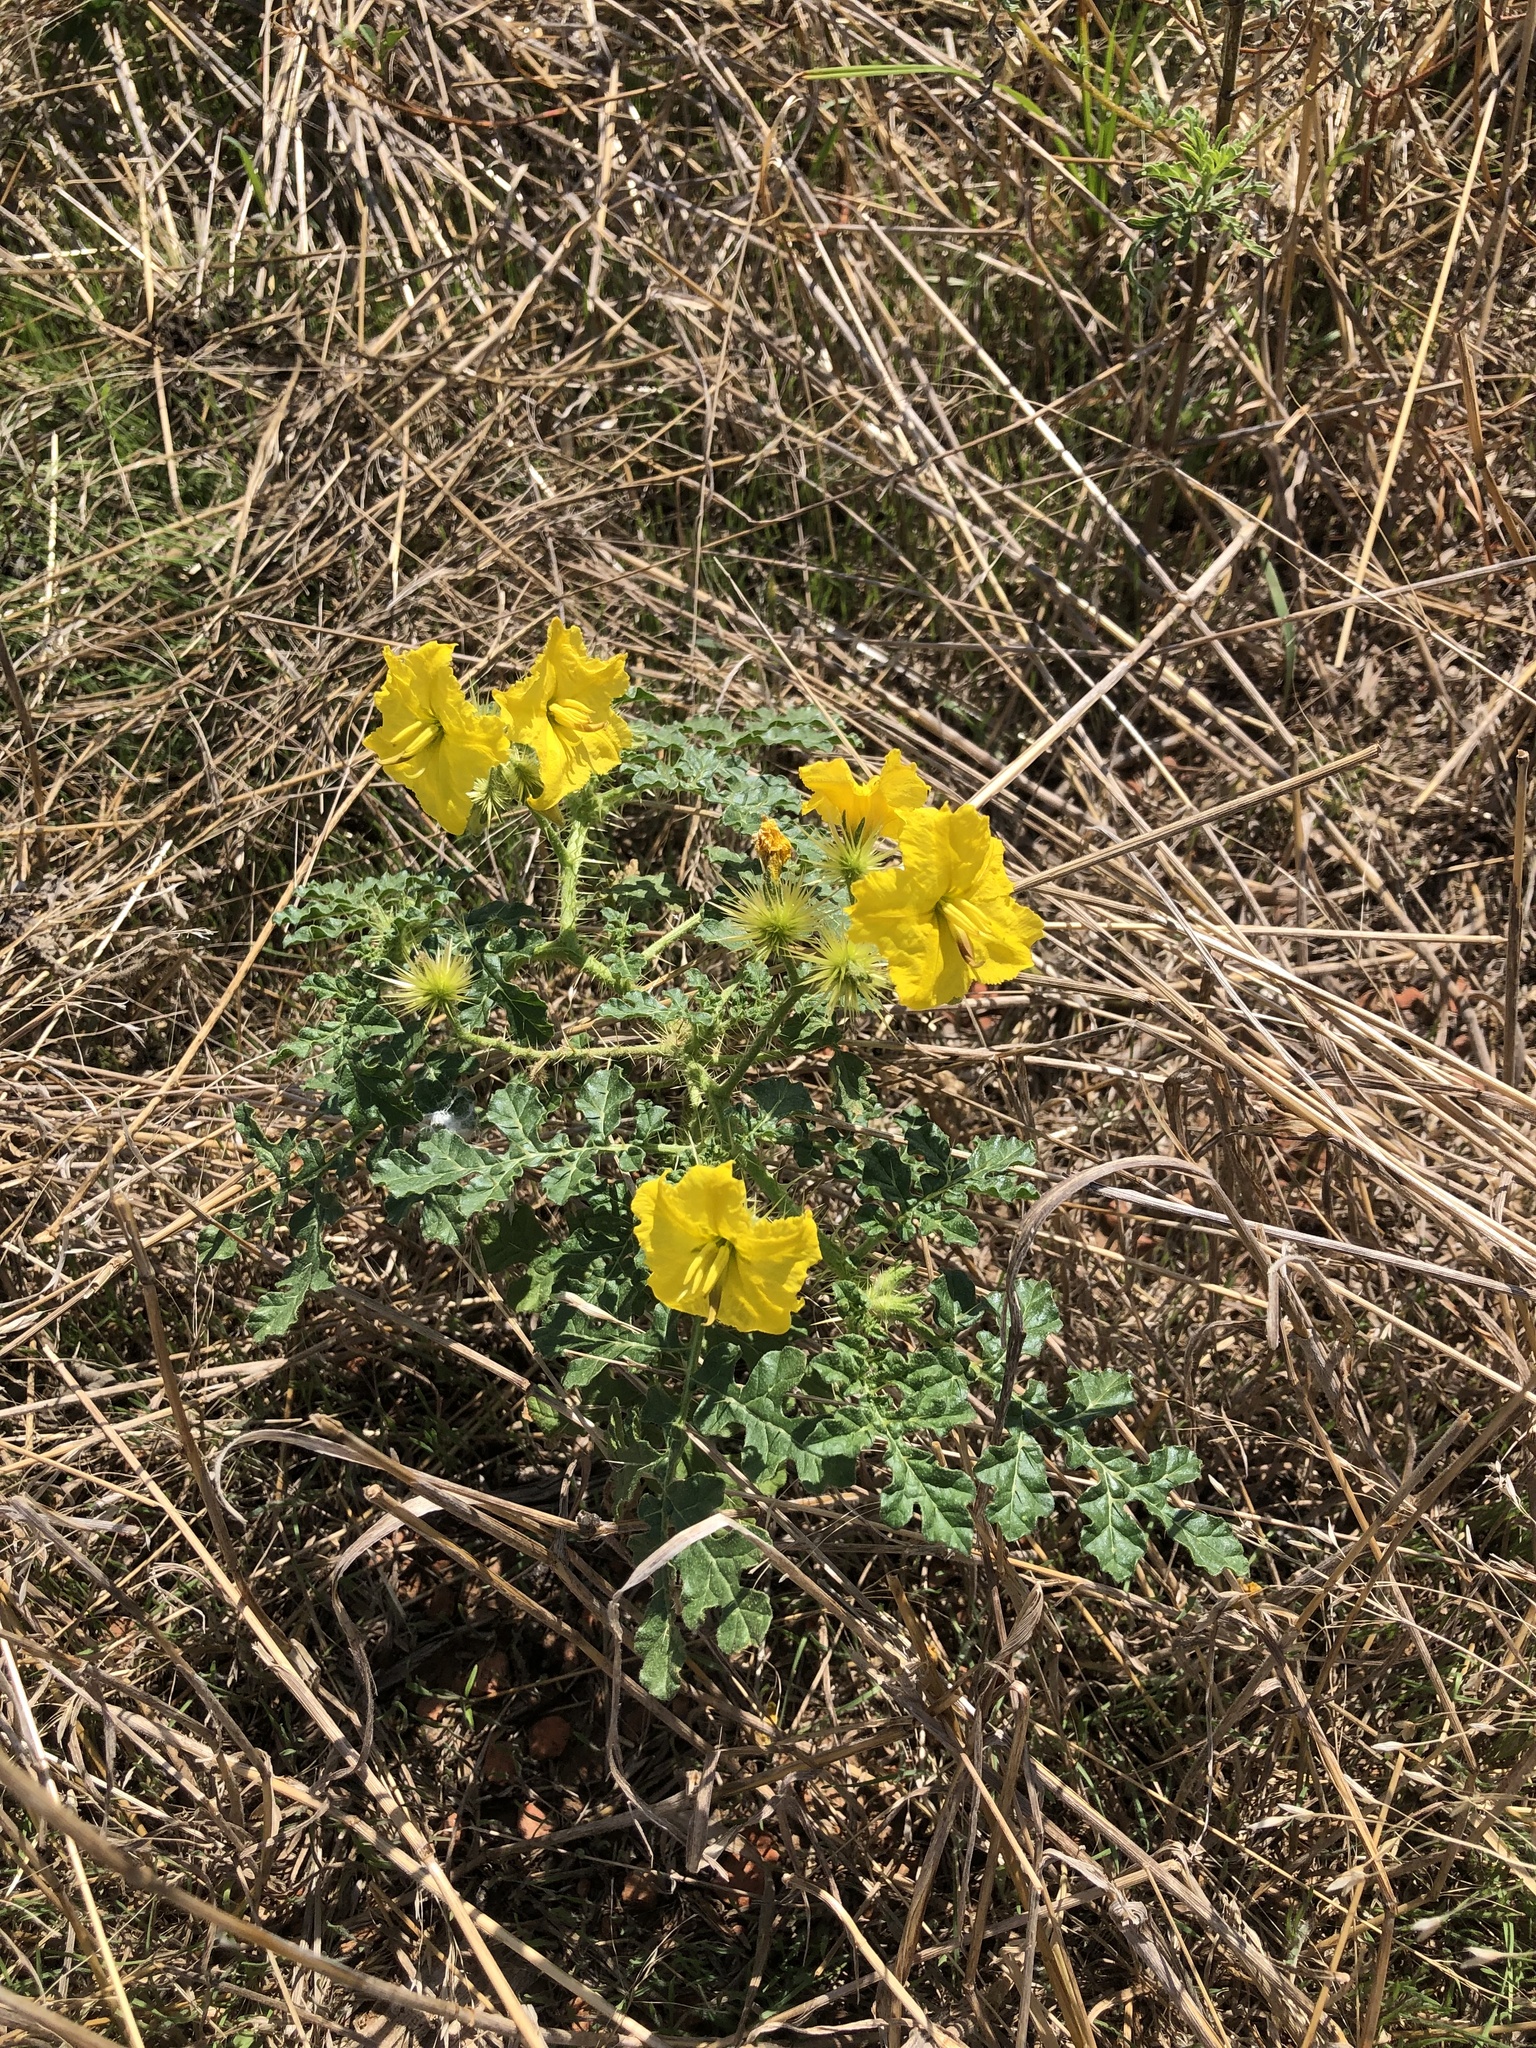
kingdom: Plantae
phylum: Tracheophyta
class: Magnoliopsida
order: Solanales
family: Solanaceae
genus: Solanum
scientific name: Solanum angustifolium
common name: Buffalobur nightshade
